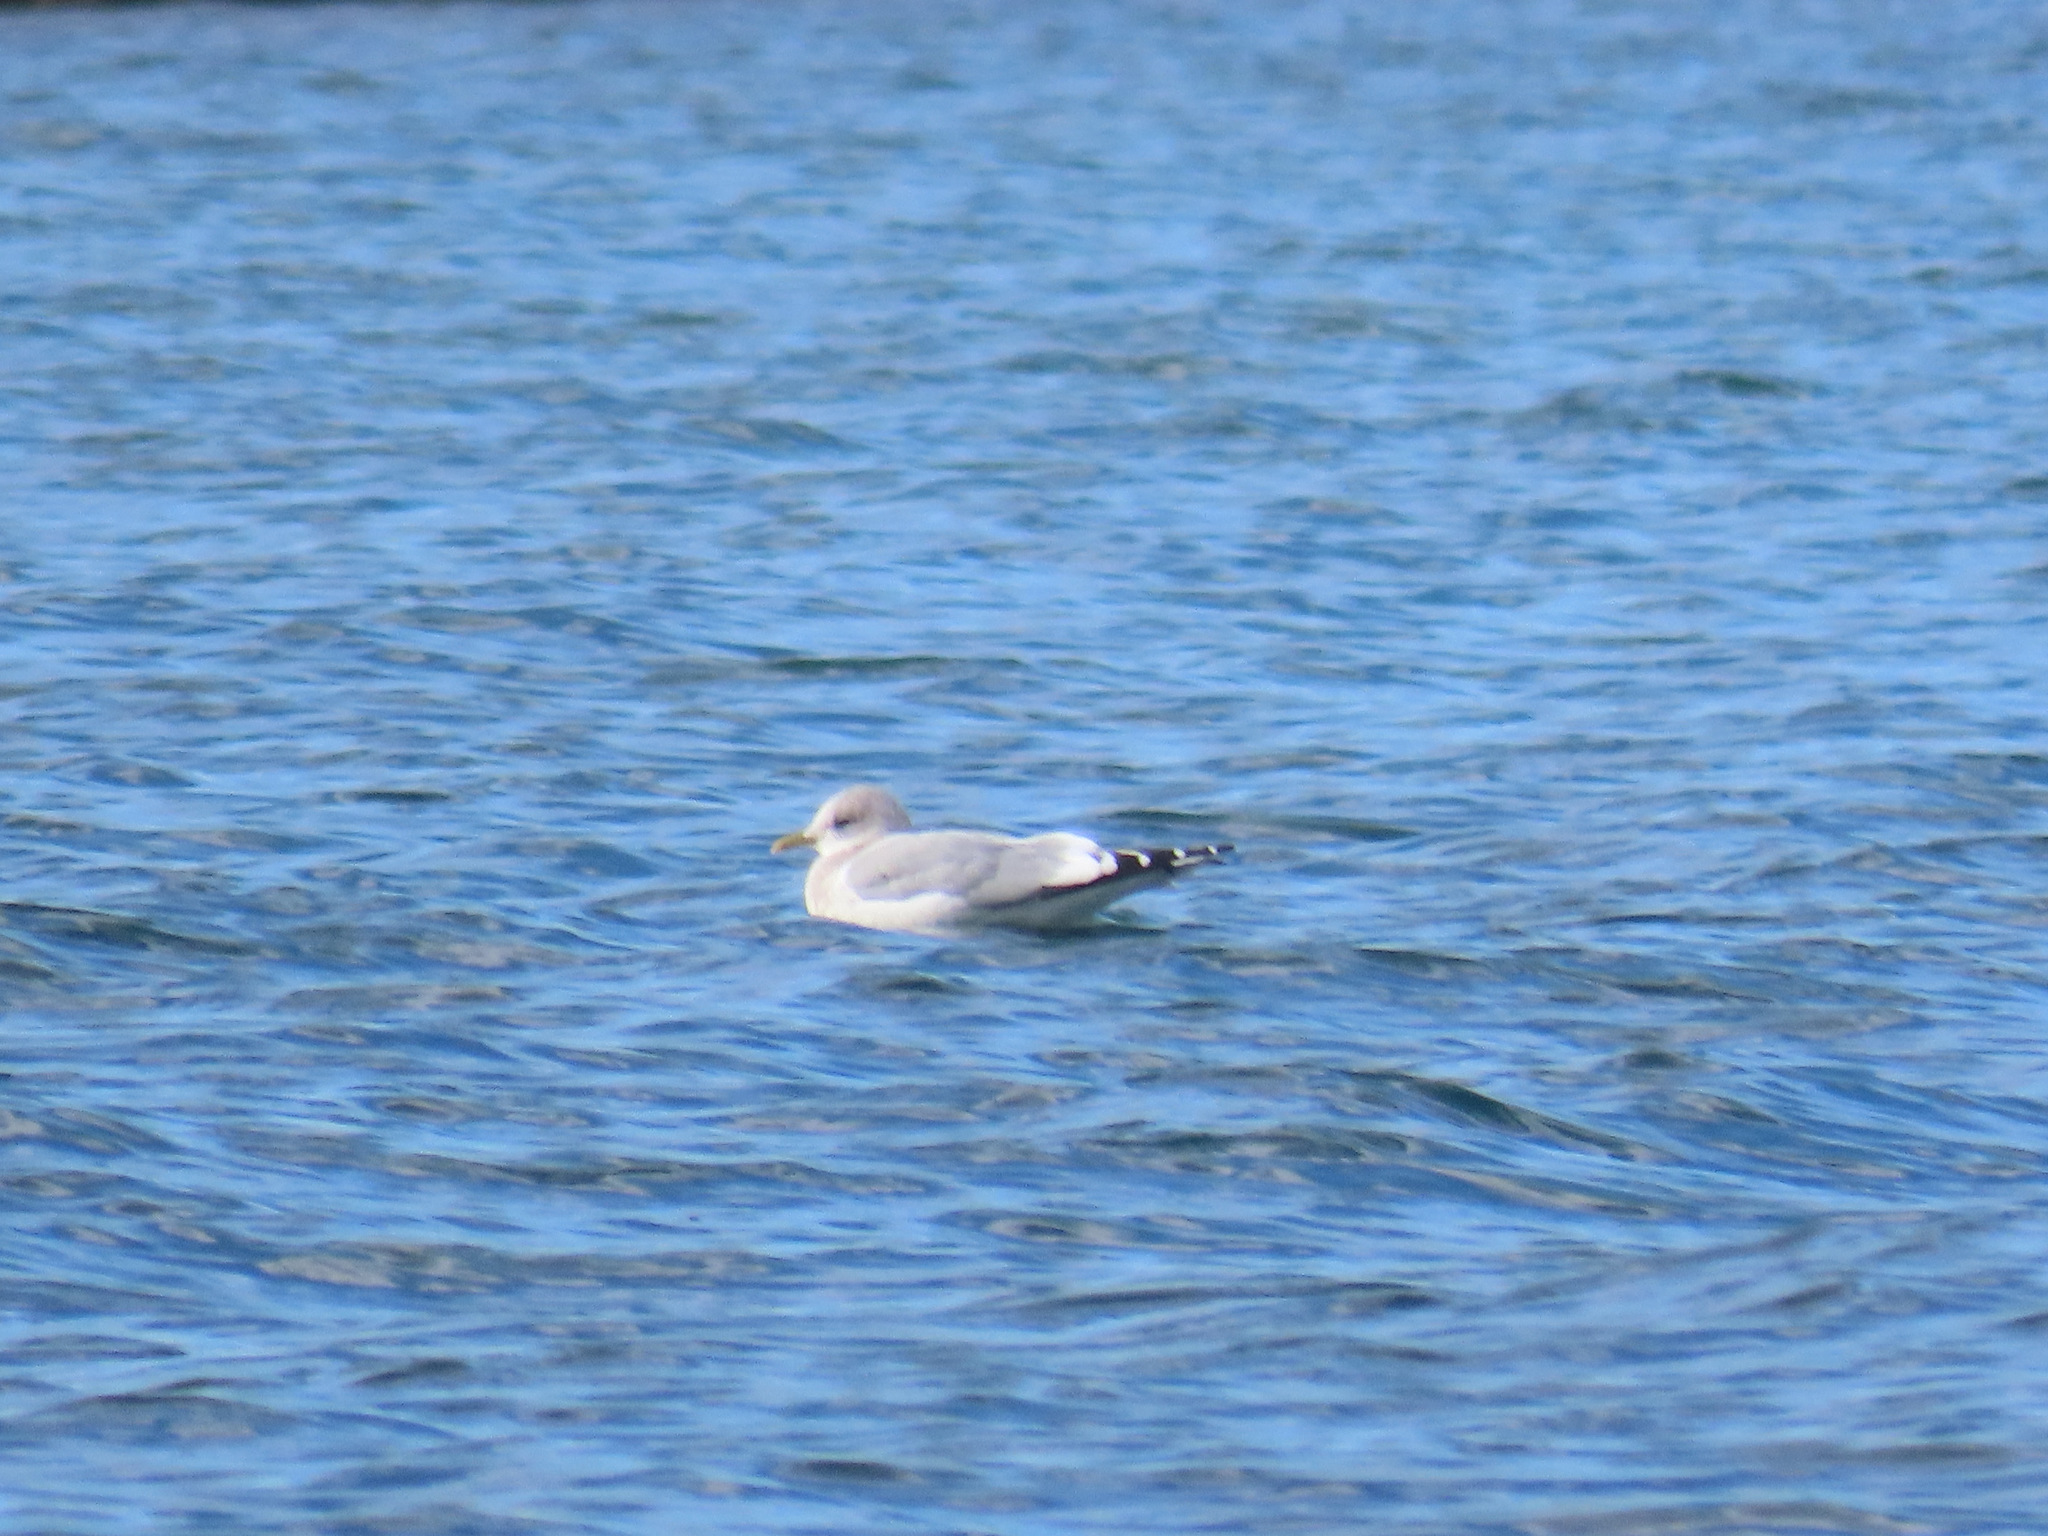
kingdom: Animalia
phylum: Chordata
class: Aves
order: Charadriiformes
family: Laridae
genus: Larus
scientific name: Larus brachyrhynchus
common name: Short-billed gull
